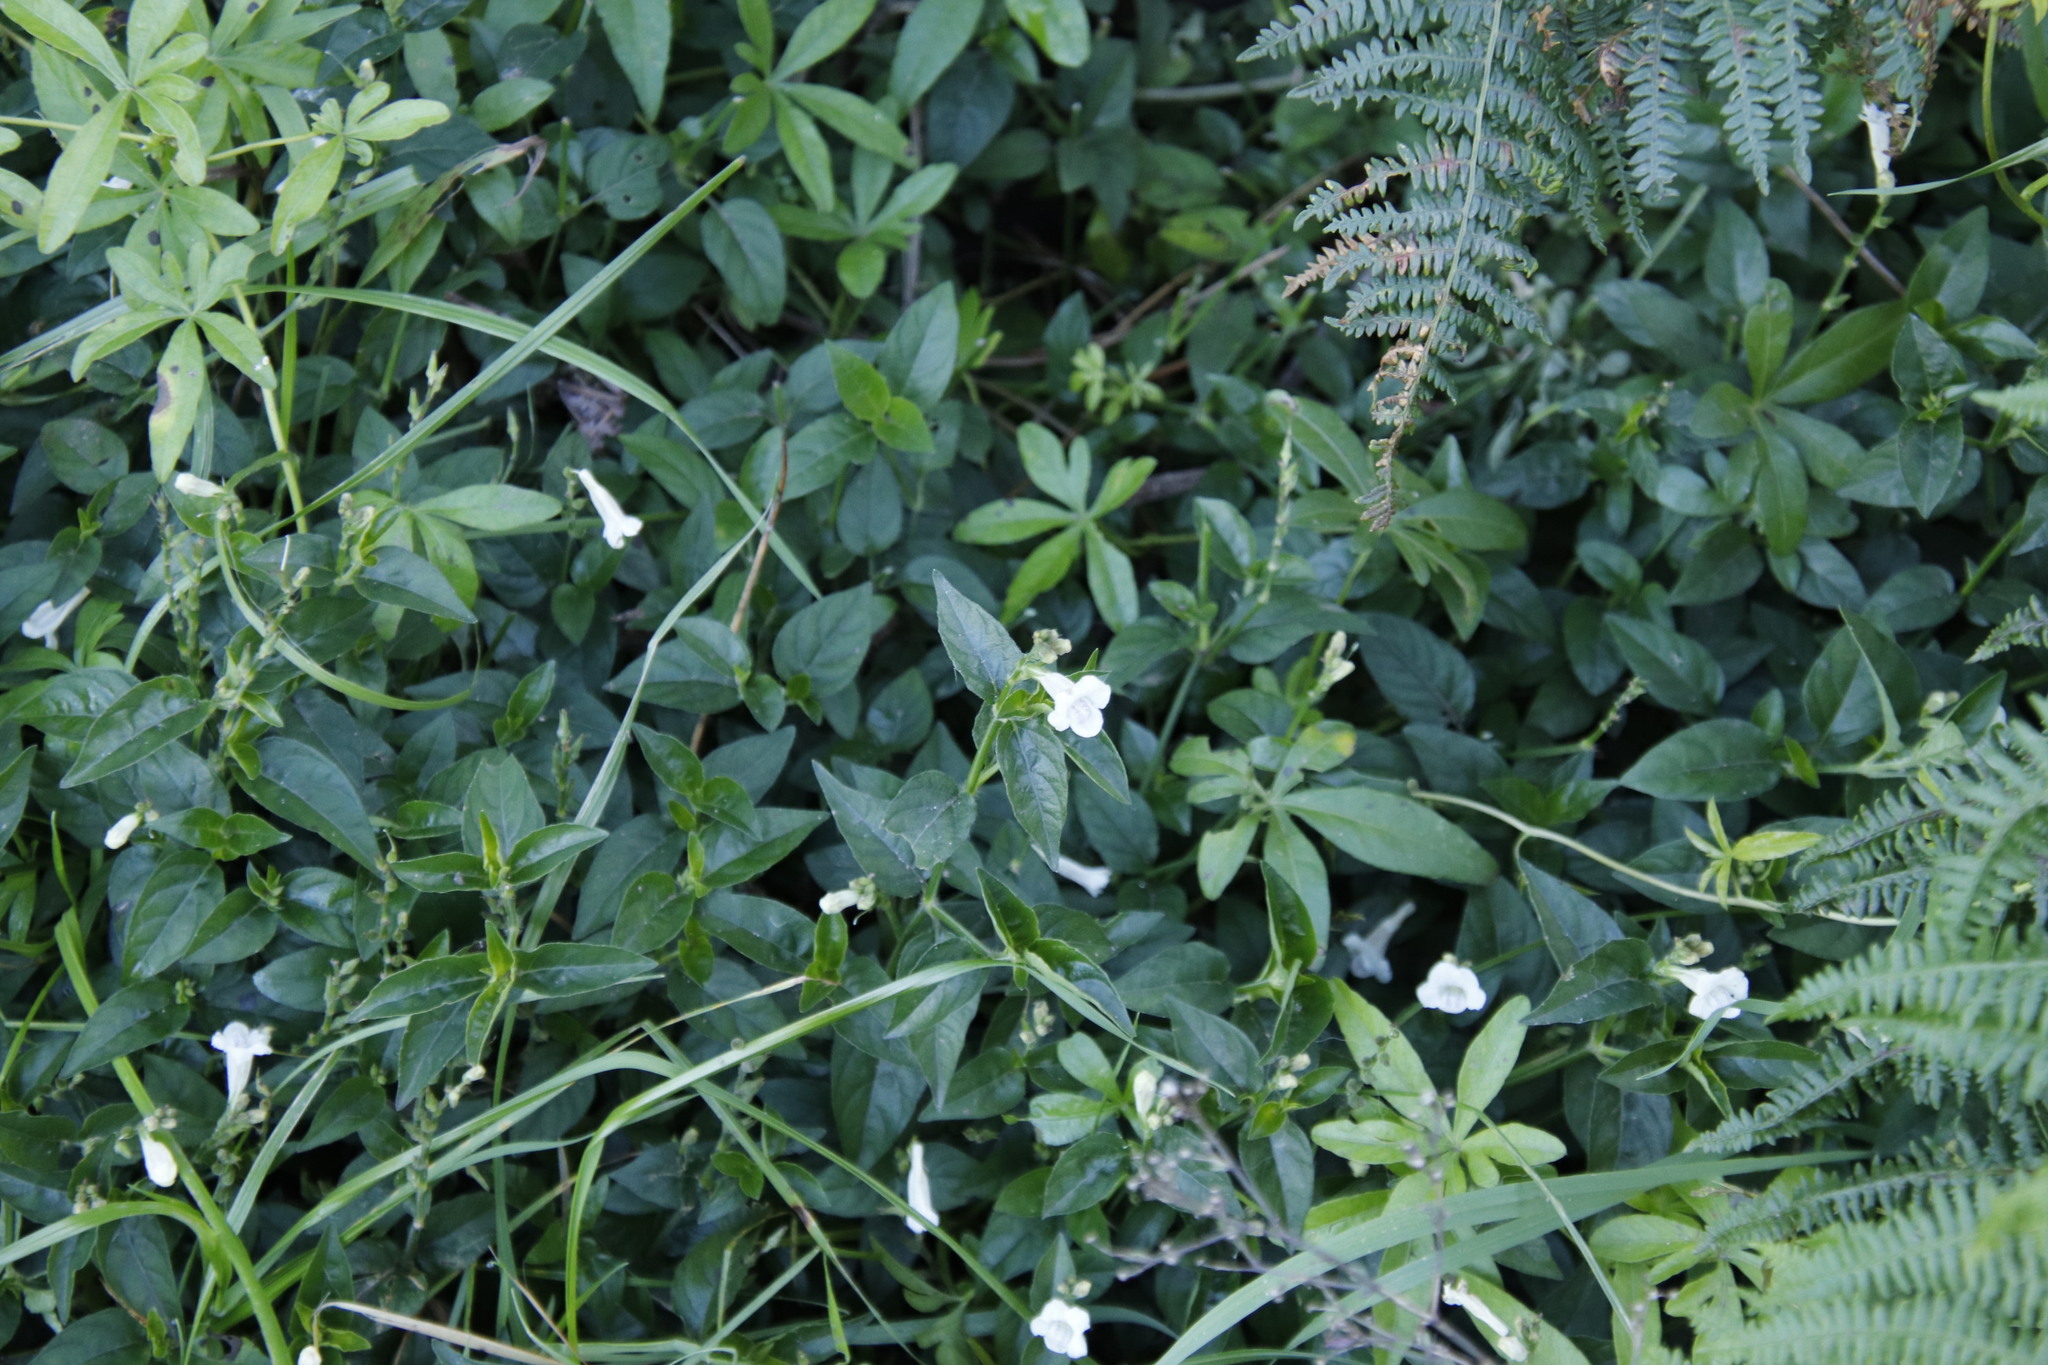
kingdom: Plantae
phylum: Tracheophyta
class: Magnoliopsida
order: Lamiales
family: Acanthaceae
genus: Asystasia
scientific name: Asystasia intrusa
